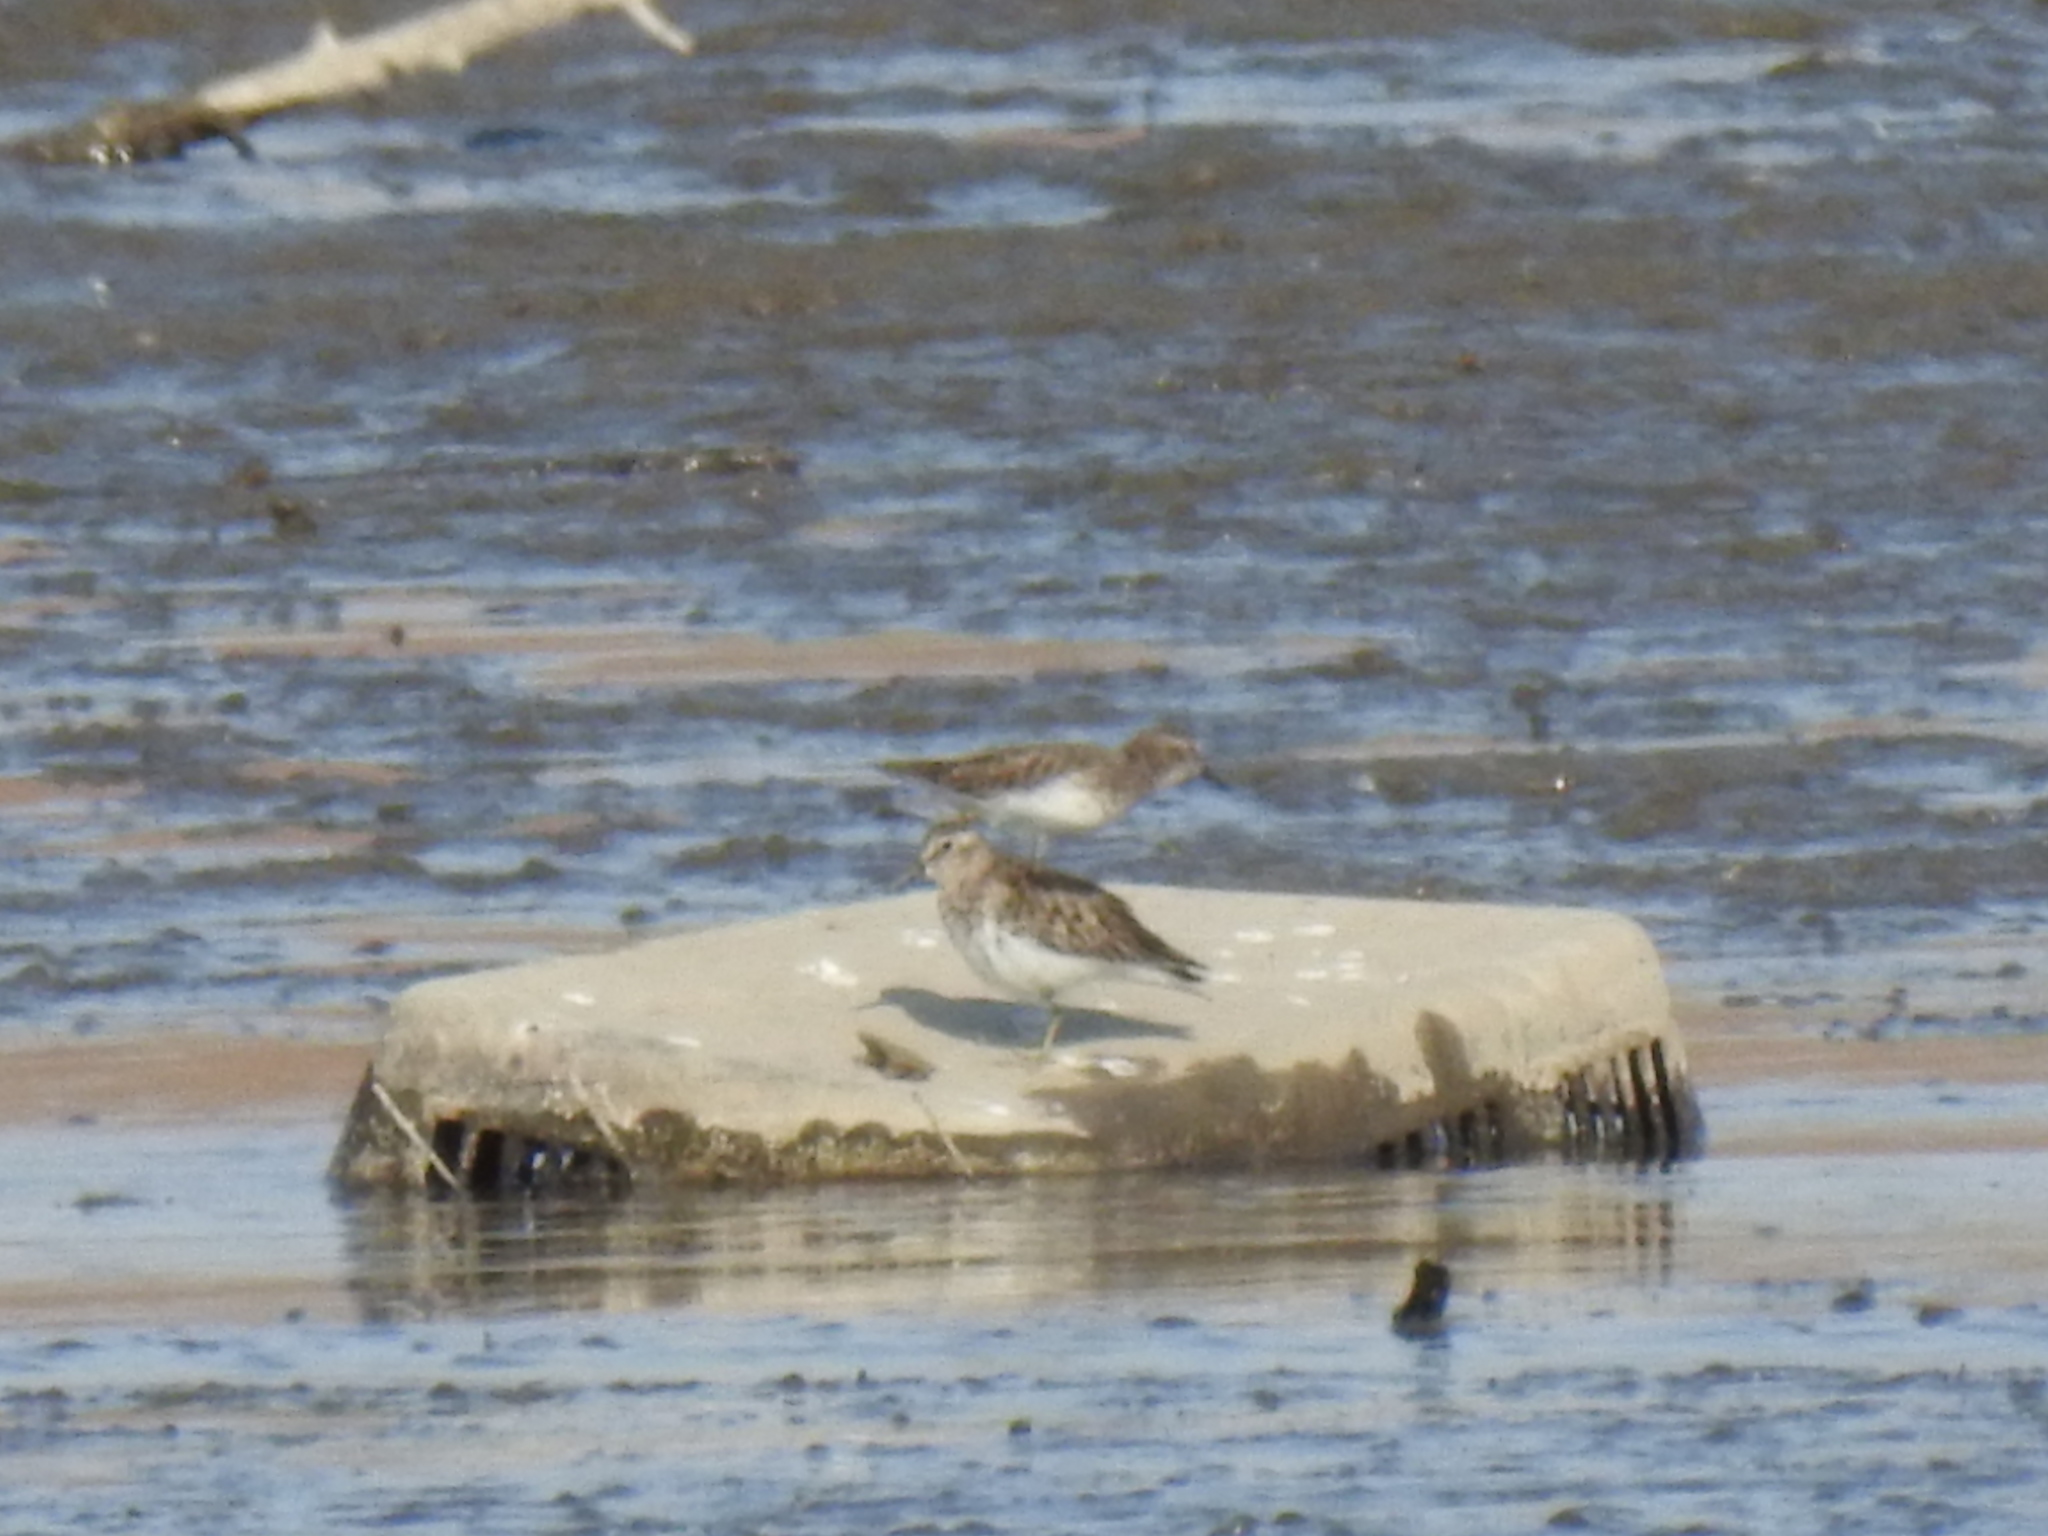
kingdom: Animalia
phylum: Chordata
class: Aves
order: Charadriiformes
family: Scolopacidae
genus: Calidris
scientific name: Calidris minutilla
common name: Least sandpiper
